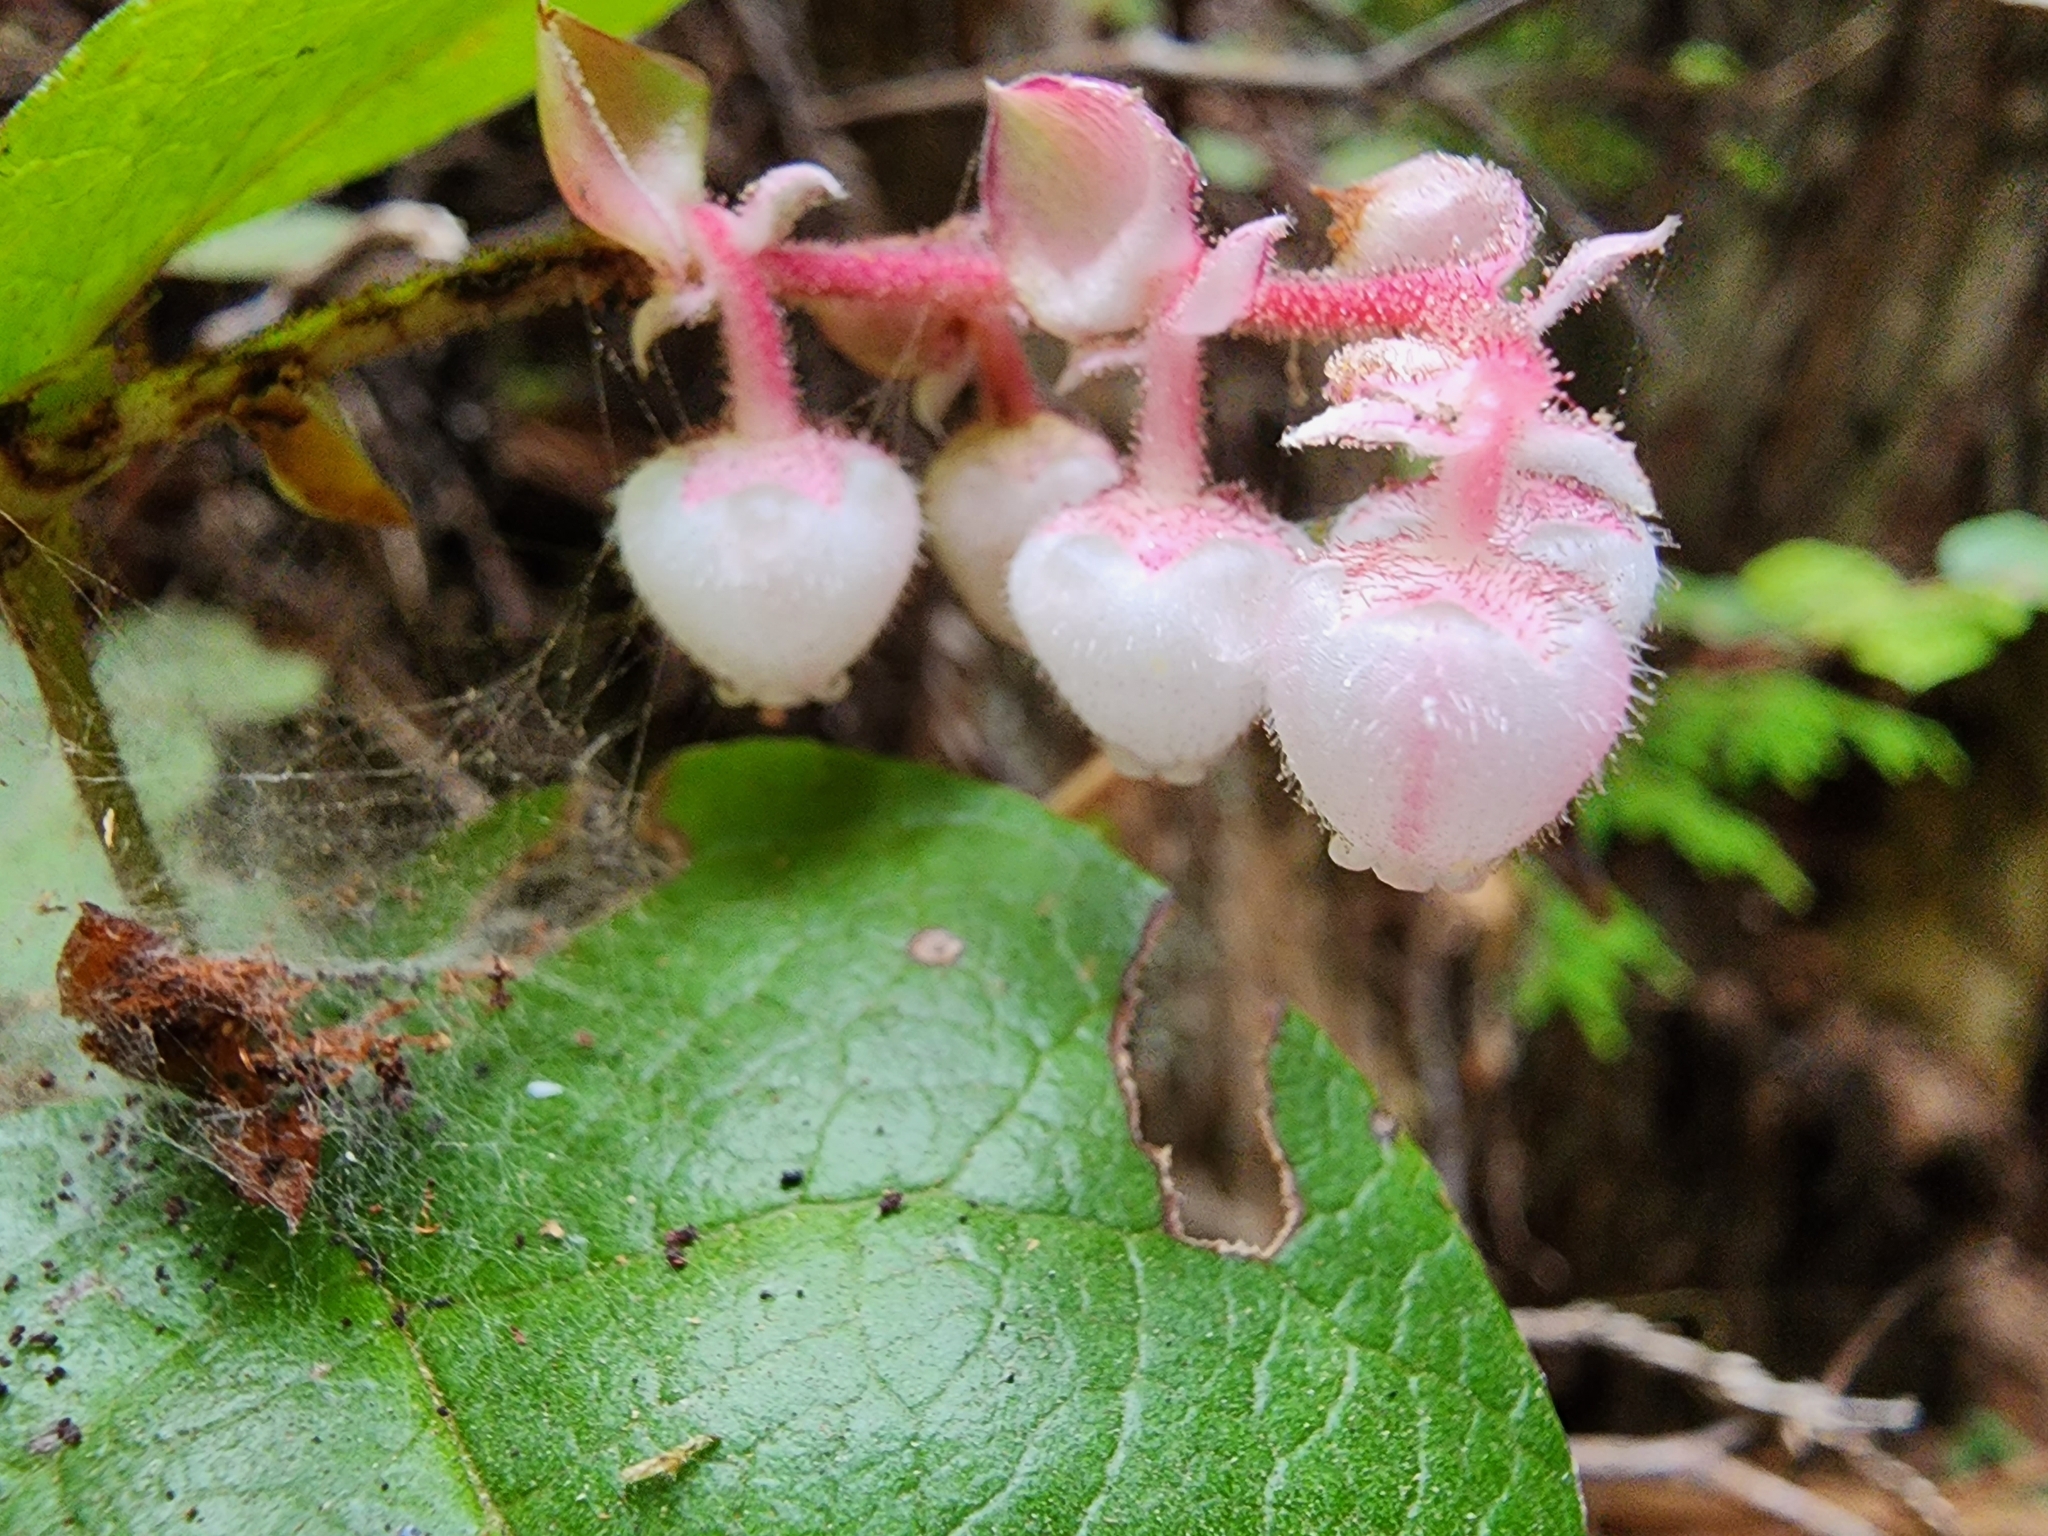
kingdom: Plantae
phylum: Tracheophyta
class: Magnoliopsida
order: Ericales
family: Ericaceae
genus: Gaultheria
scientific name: Gaultheria shallon
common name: Shallon
